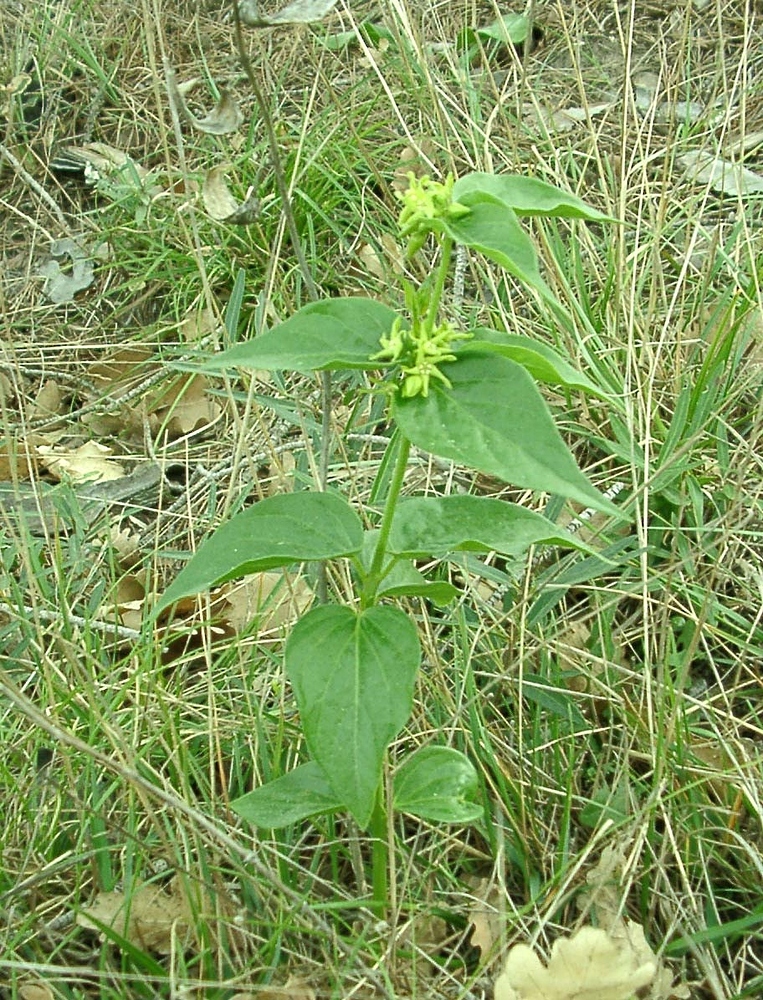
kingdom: Plantae
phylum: Tracheophyta
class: Magnoliopsida
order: Gentianales
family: Apocynaceae
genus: Vincetoxicum
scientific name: Vincetoxicum hirundinaria
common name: White swallowwort
